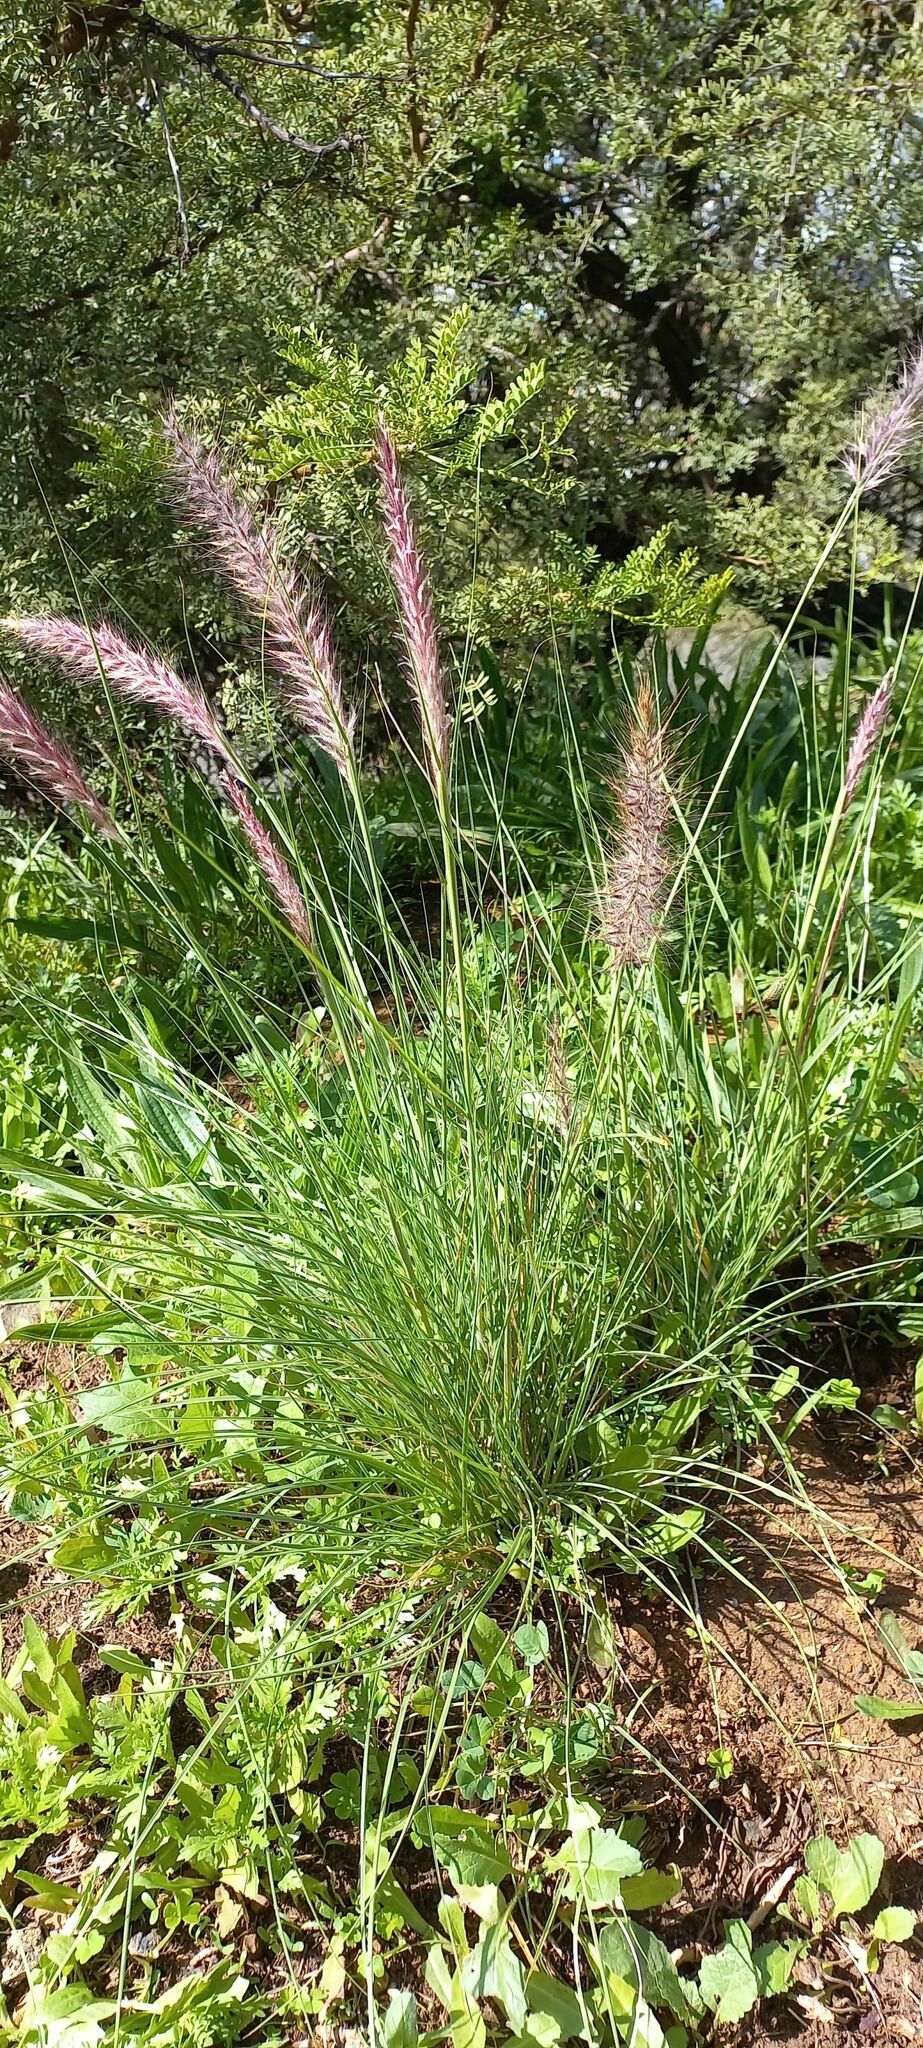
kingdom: Plantae
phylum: Tracheophyta
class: Liliopsida
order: Poales
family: Poaceae
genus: Cenchrus
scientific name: Cenchrus setaceus
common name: Crimson fountaingrass
